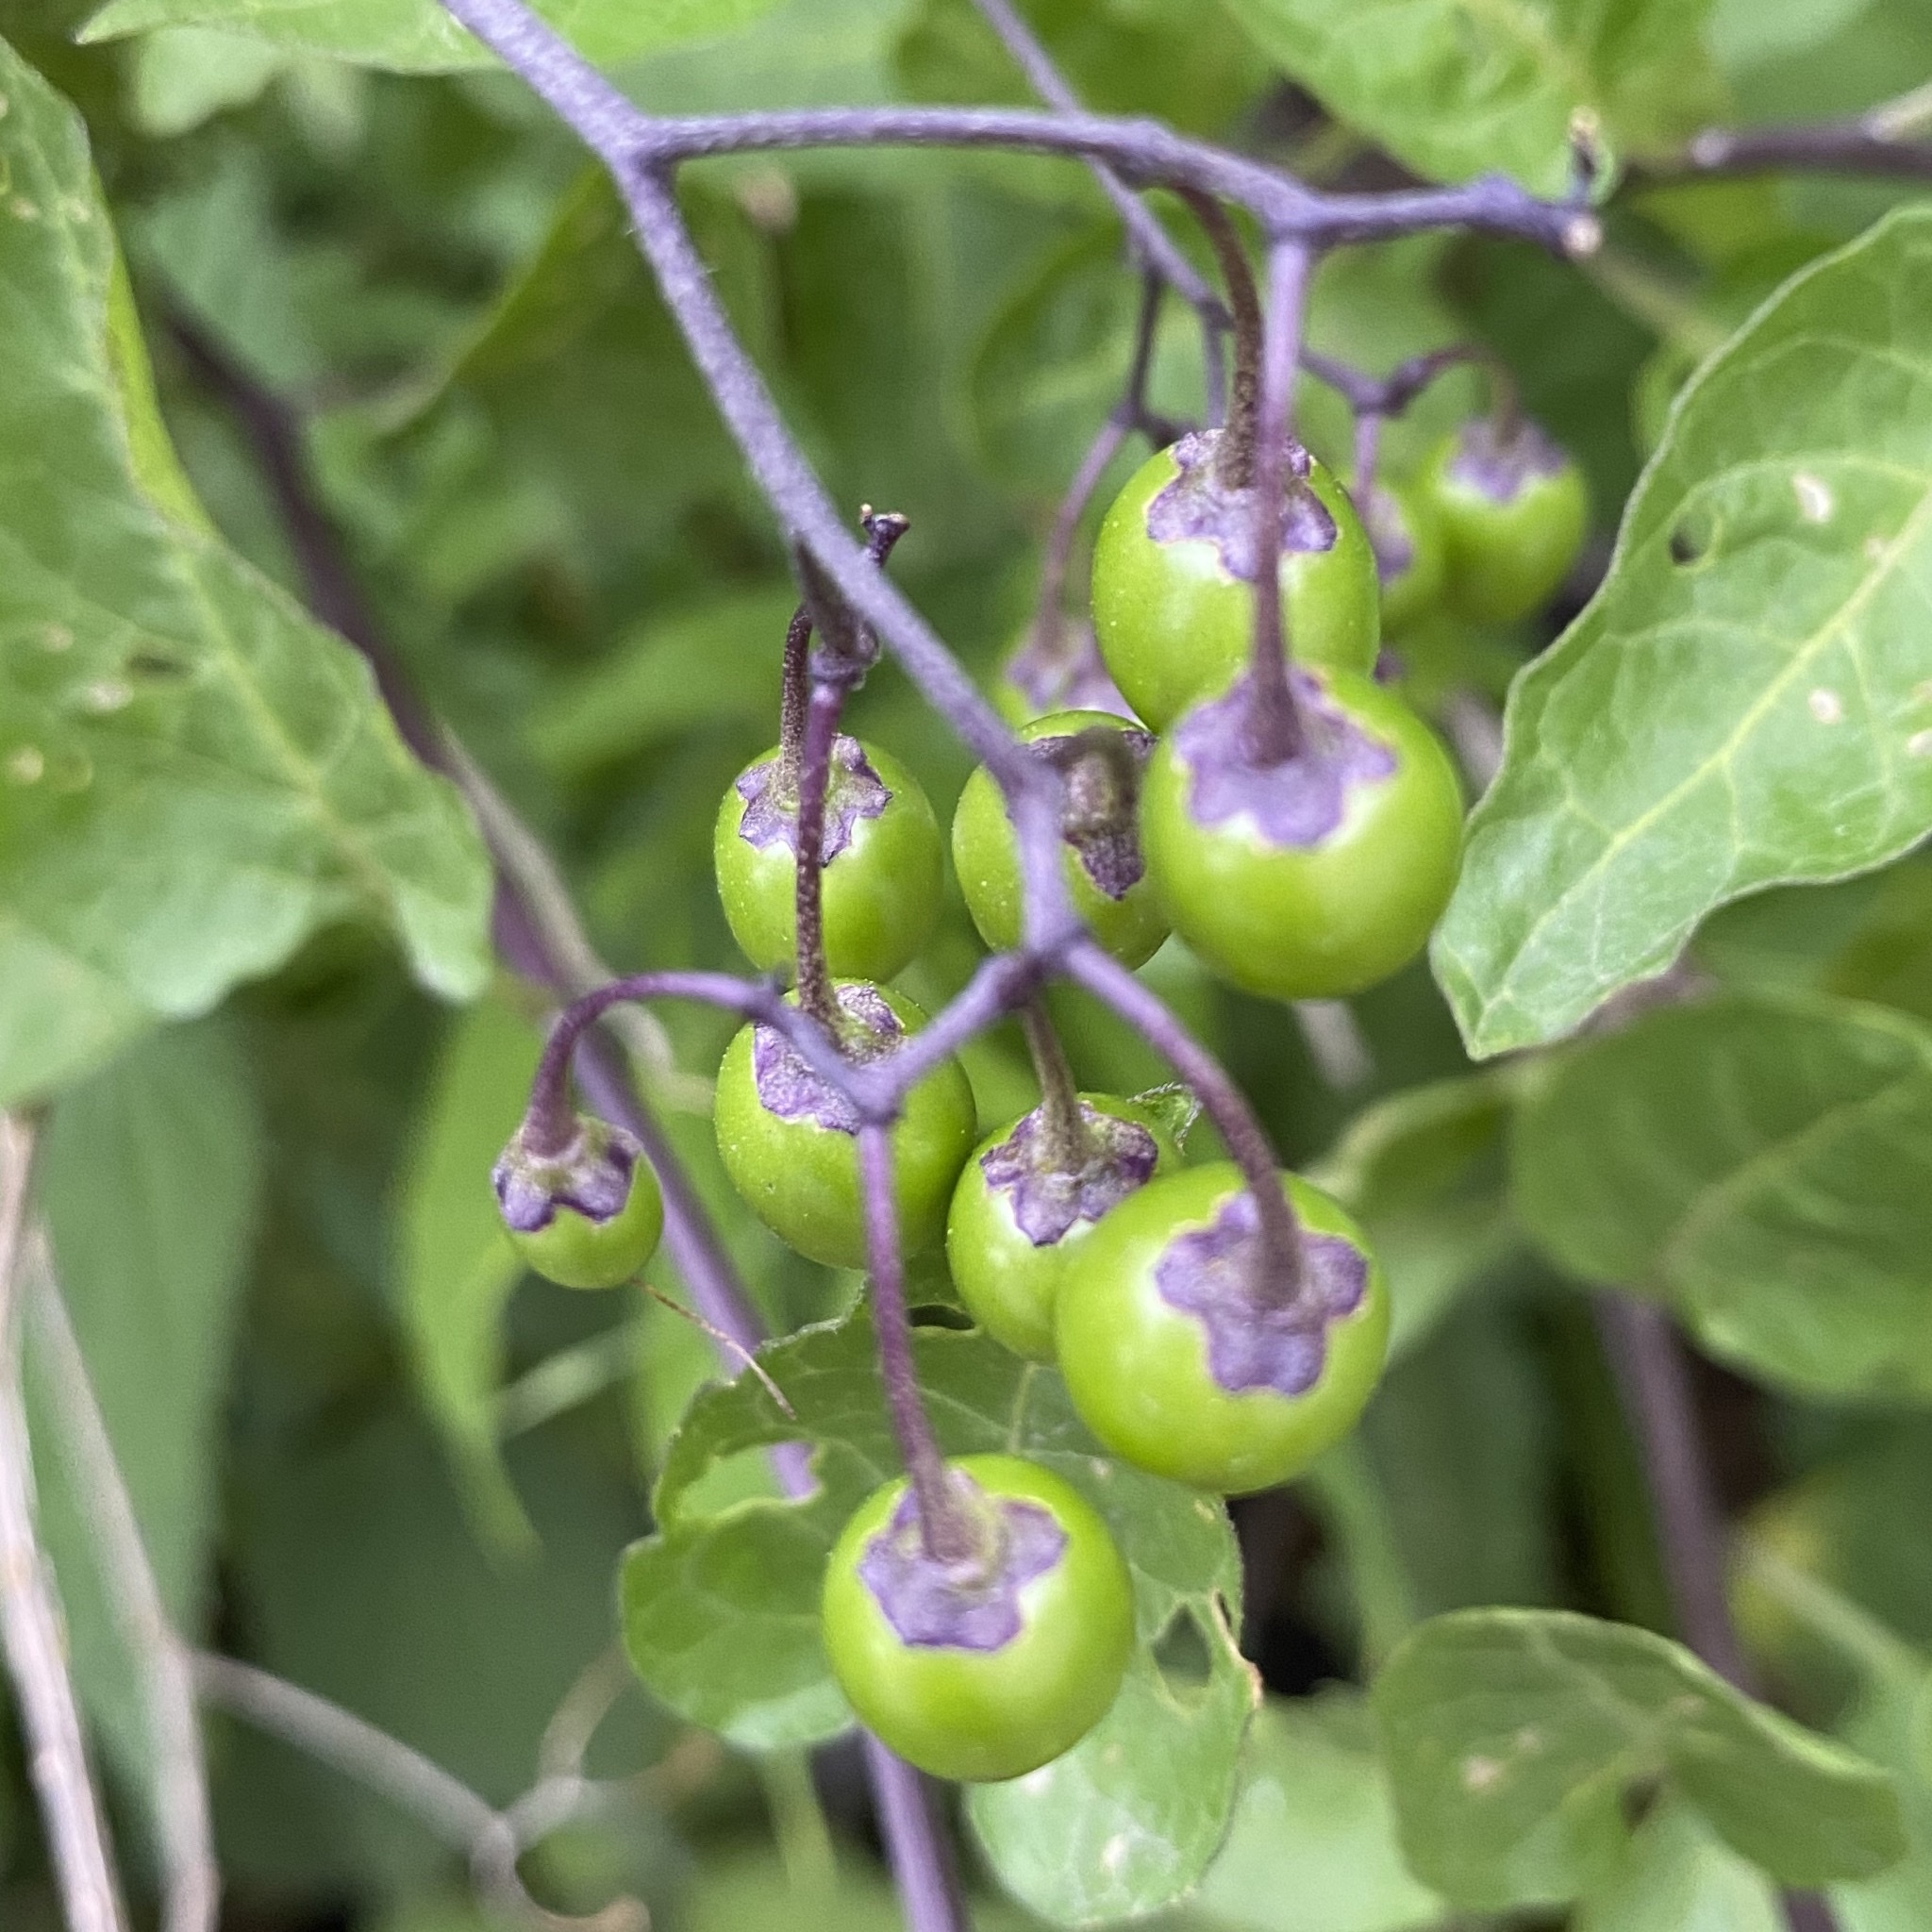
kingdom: Plantae
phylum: Tracheophyta
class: Magnoliopsida
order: Solanales
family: Solanaceae
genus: Solanum
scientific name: Solanum dulcamara
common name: Climbing nightshade
